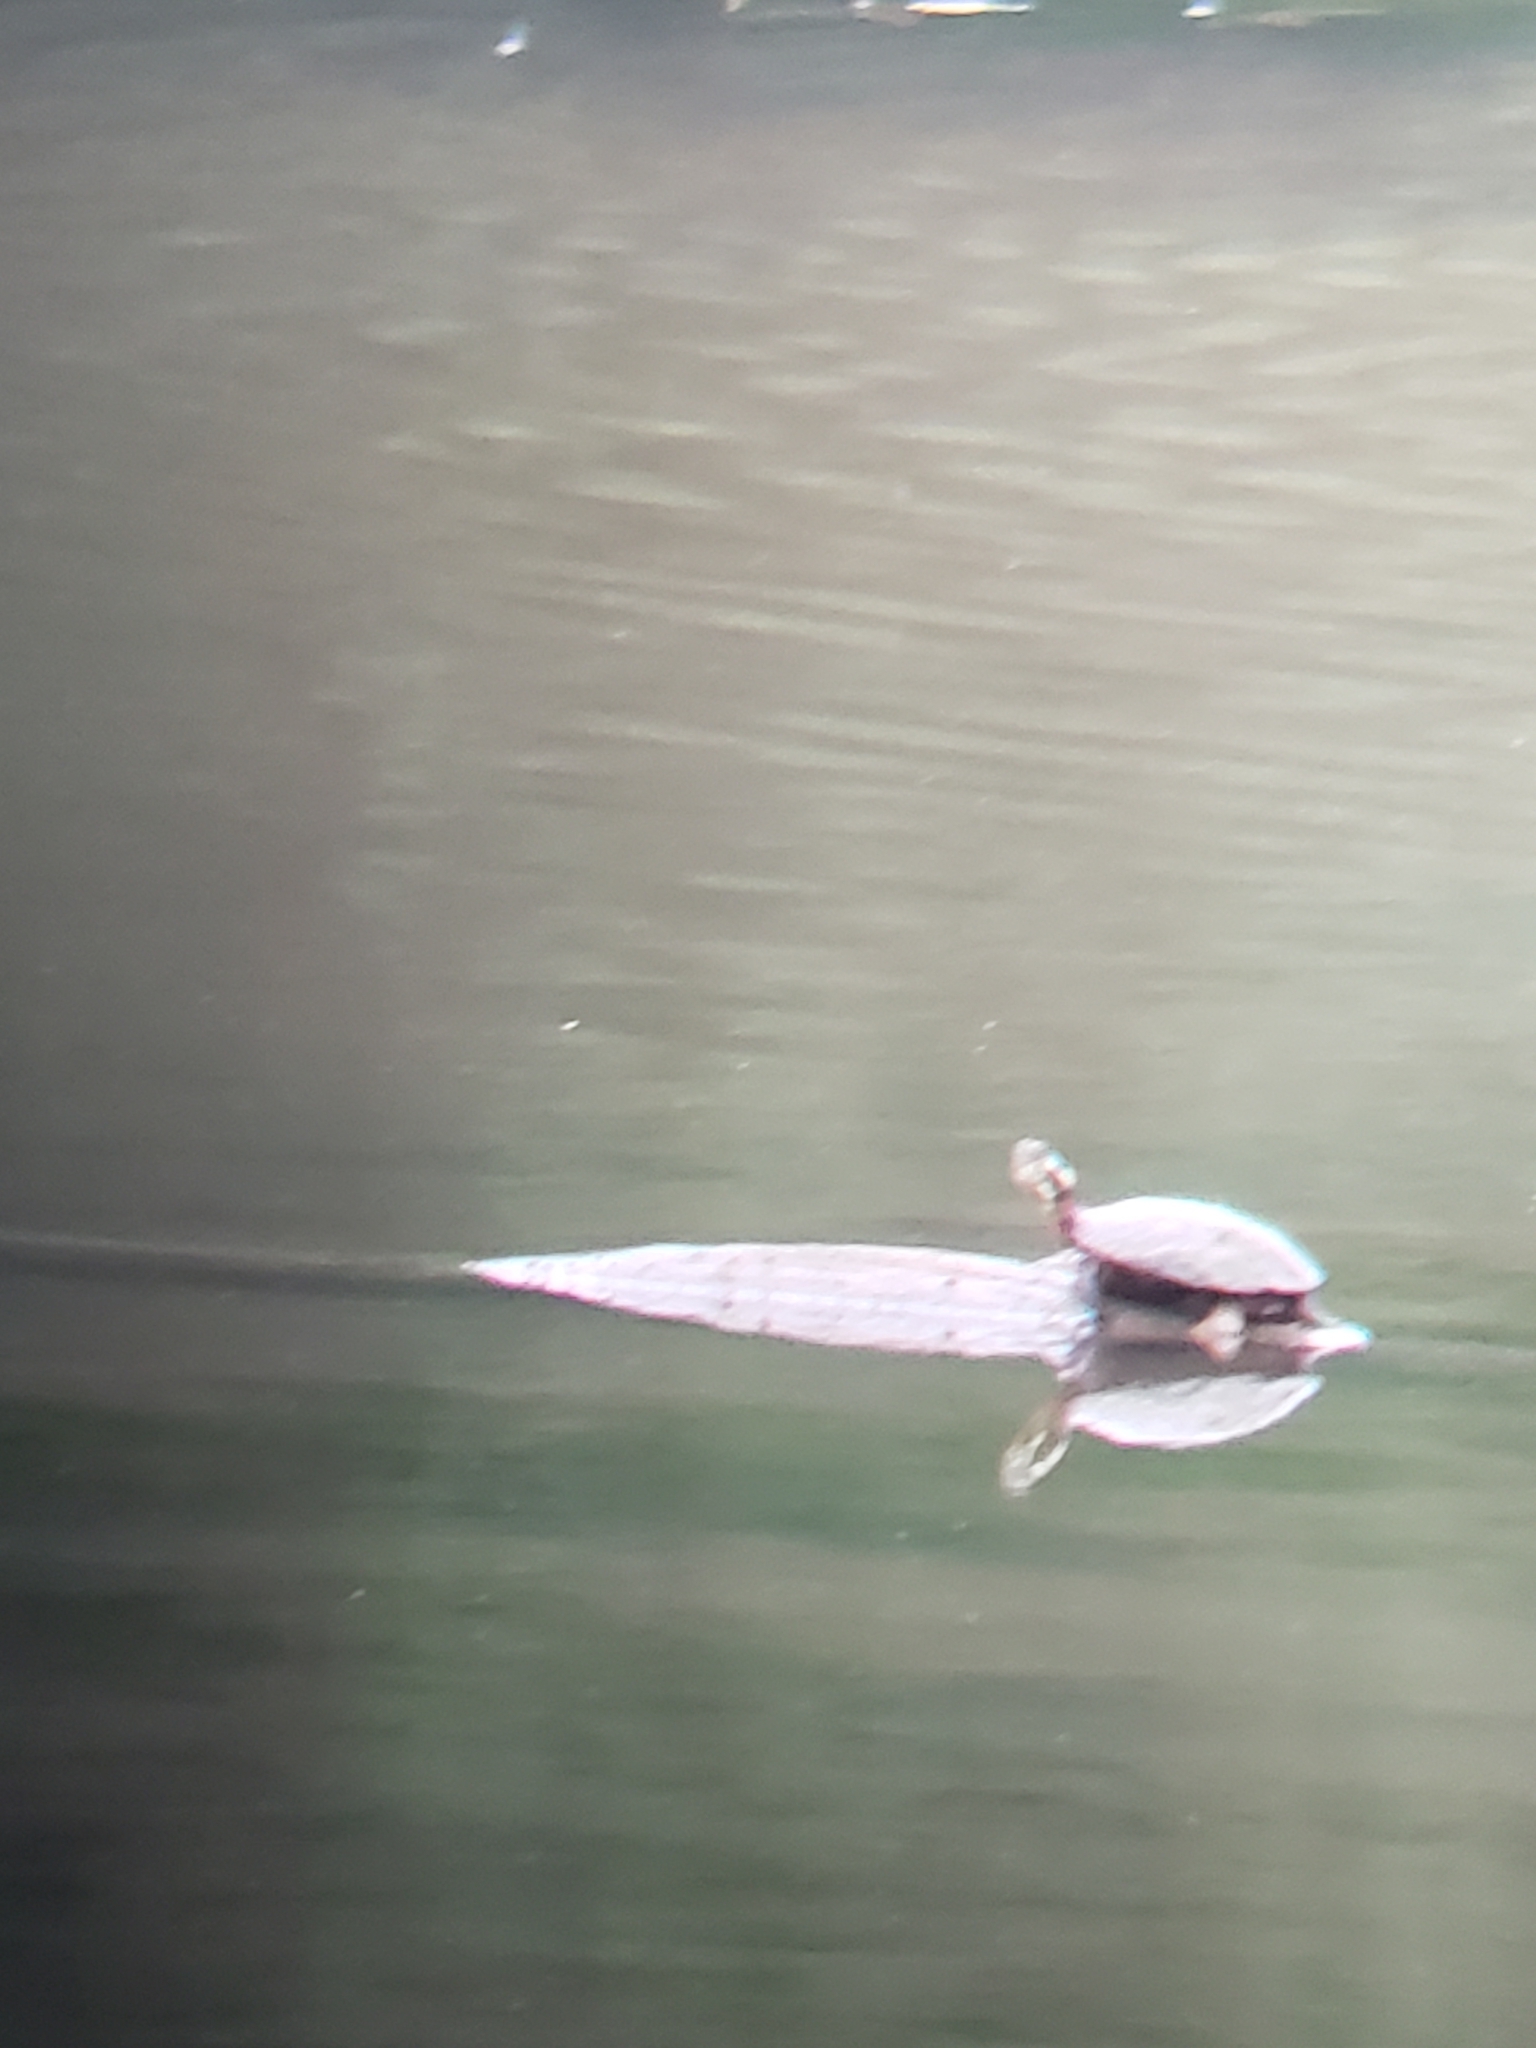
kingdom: Animalia
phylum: Chordata
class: Testudines
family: Emydidae
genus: Chrysemys
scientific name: Chrysemys picta
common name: Painted turtle
